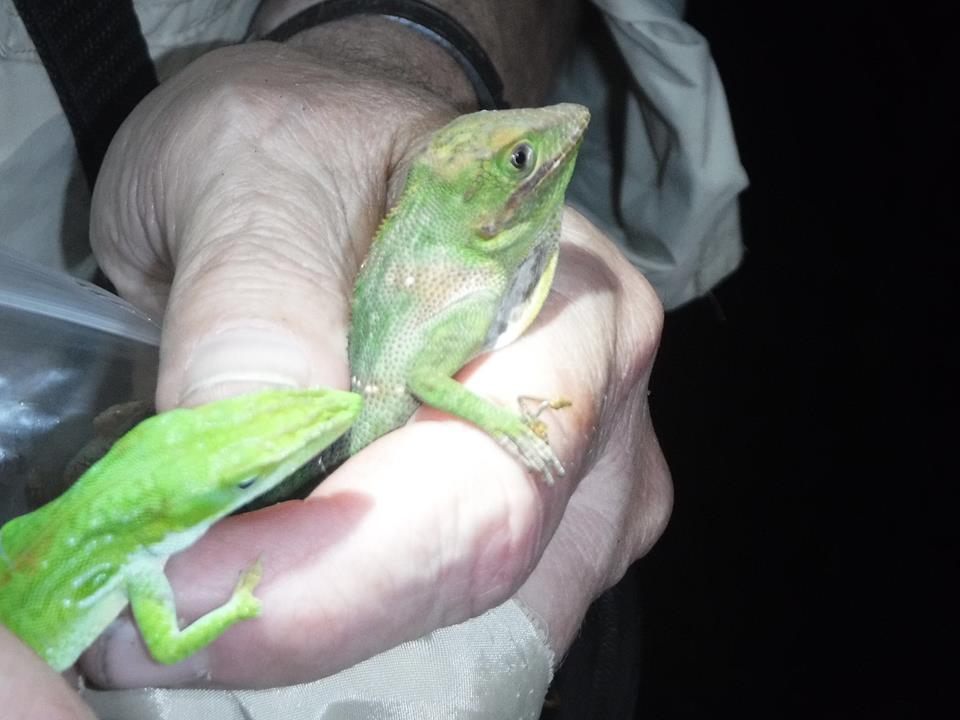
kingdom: Animalia
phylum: Chordata
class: Squamata
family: Dactyloidae
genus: Anolis
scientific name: Anolis equestris
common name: Knight anole
